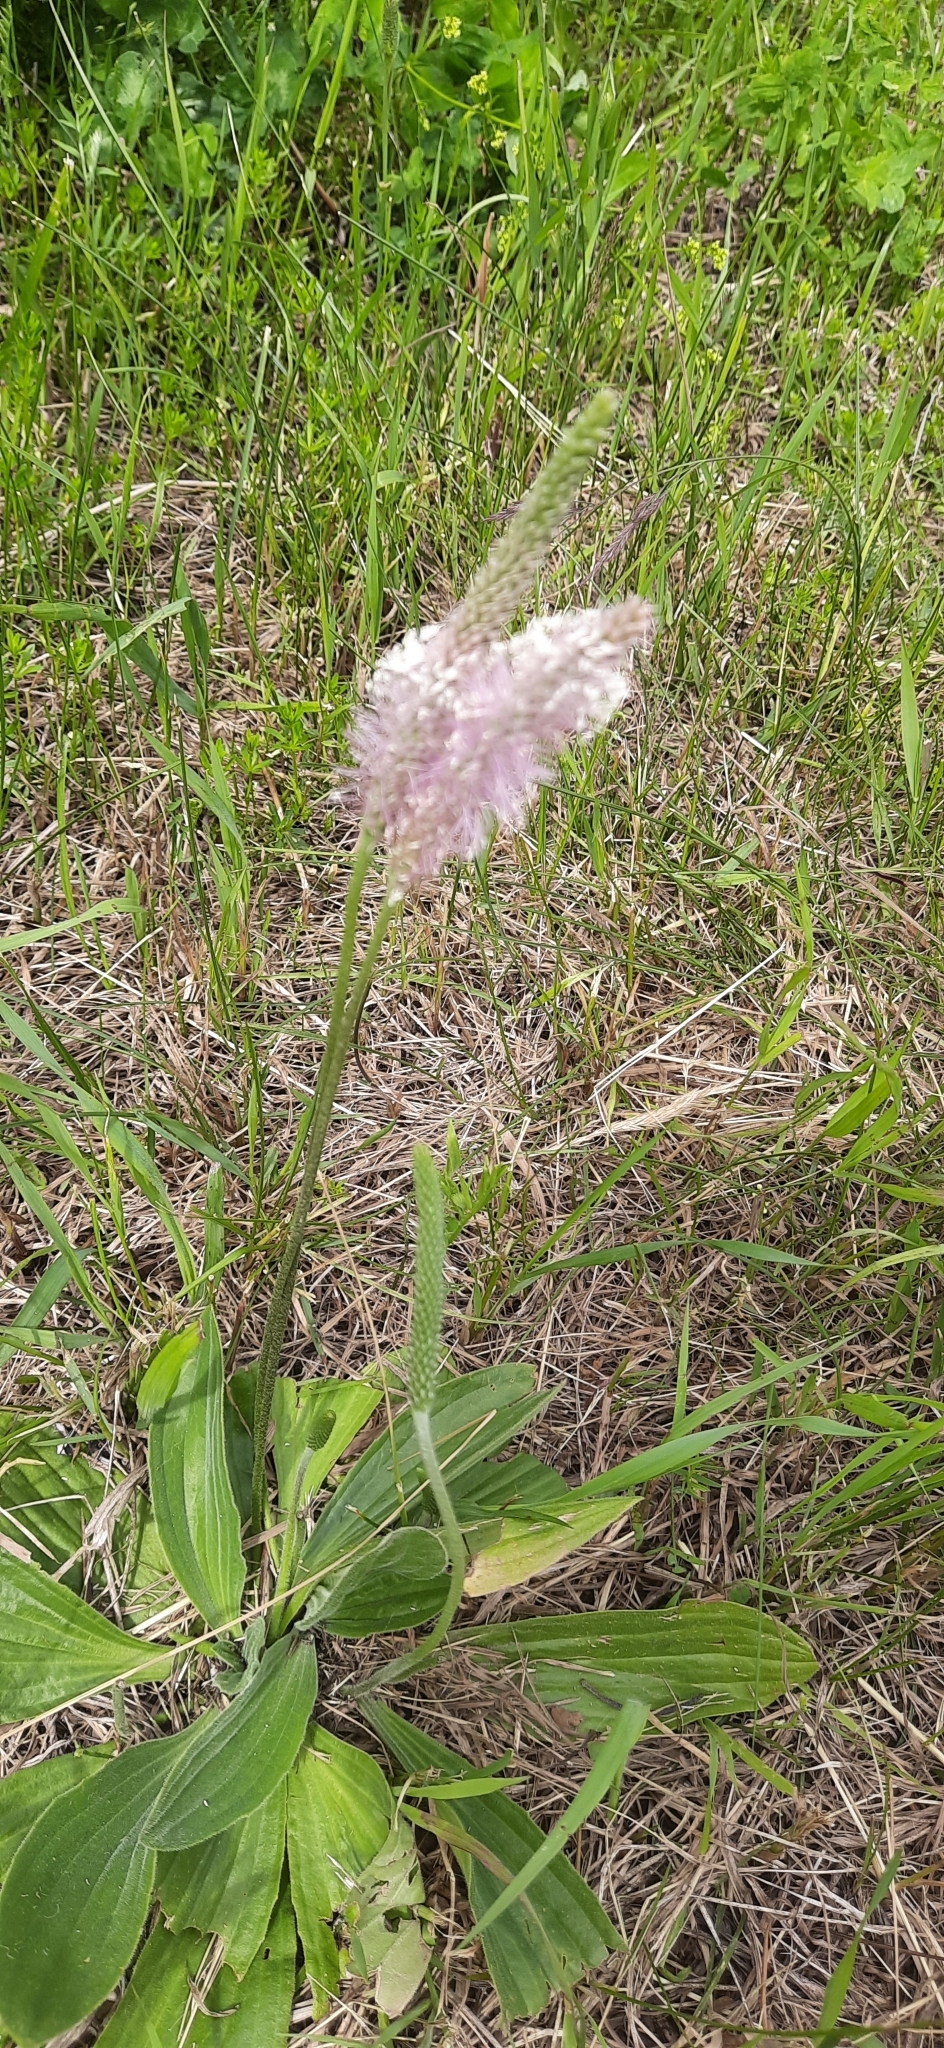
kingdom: Plantae
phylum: Tracheophyta
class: Magnoliopsida
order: Lamiales
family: Plantaginaceae
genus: Plantago
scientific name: Plantago media
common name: Hoary plantain
